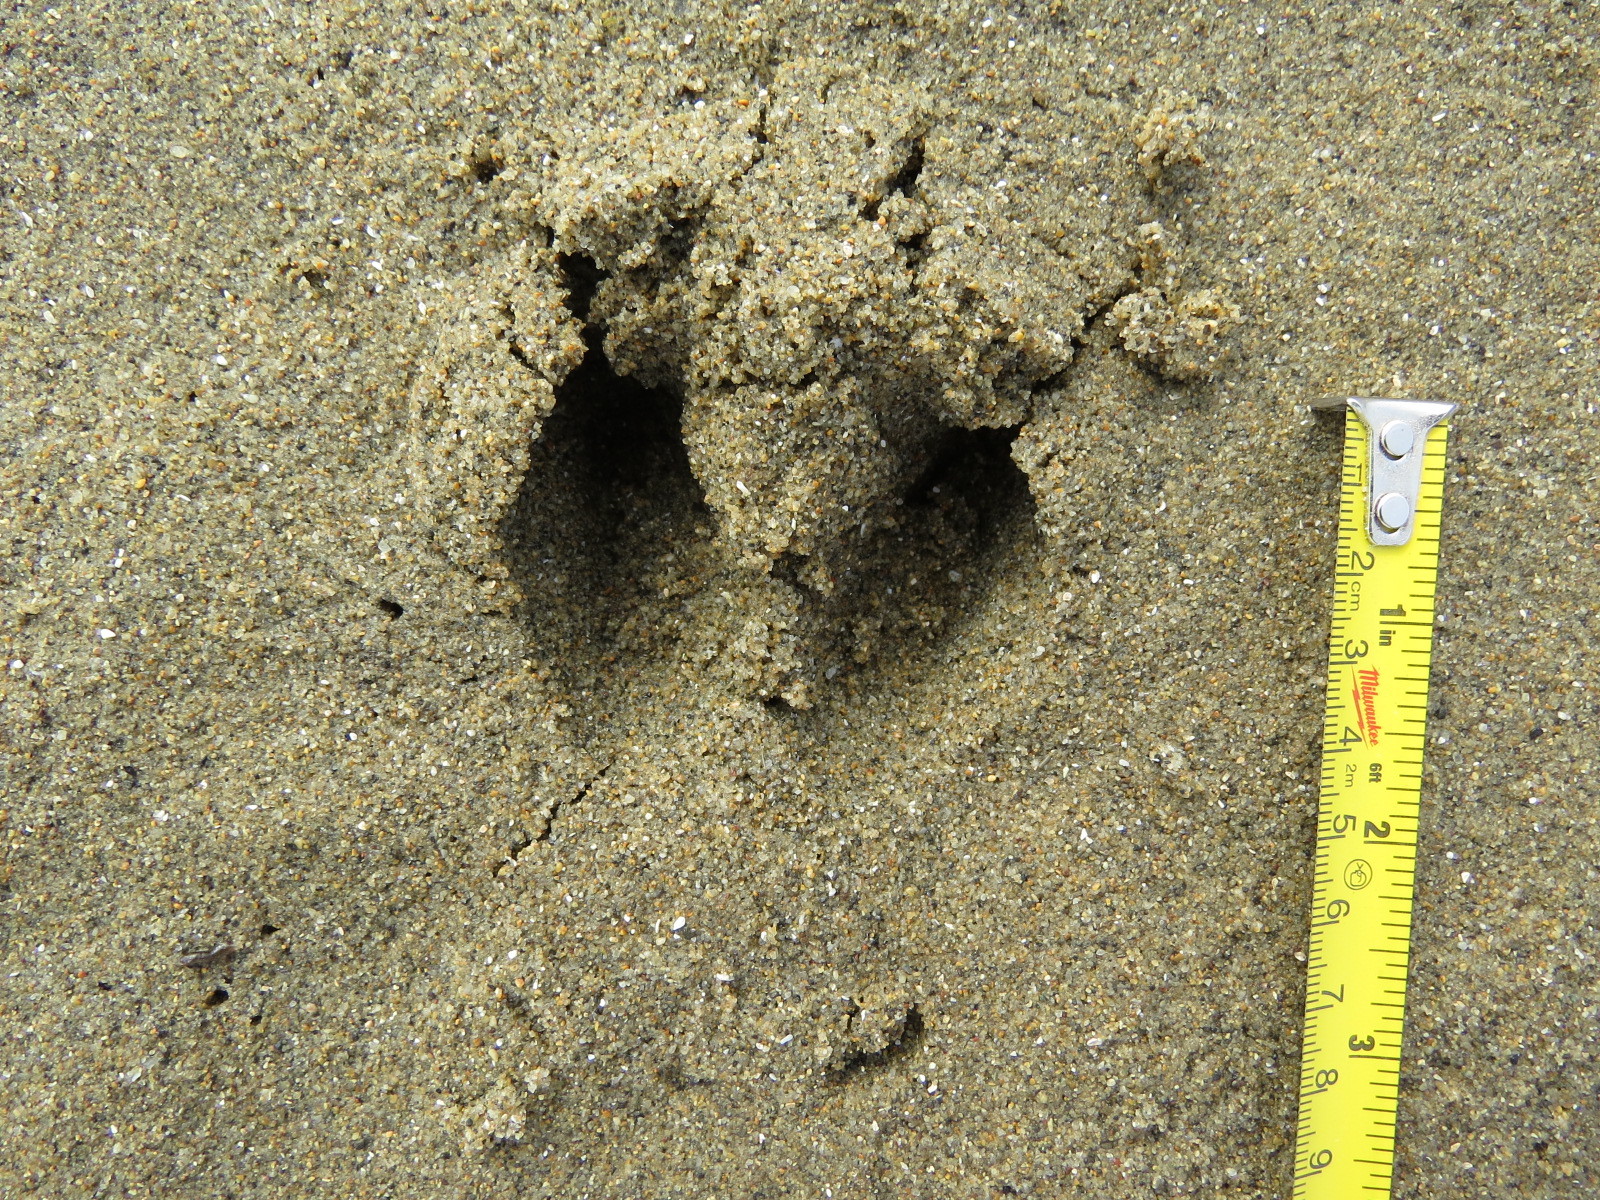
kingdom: Animalia
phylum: Chordata
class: Mammalia
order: Artiodactyla
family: Cervidae
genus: Odocoileus
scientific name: Odocoileus hemionus
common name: Mule deer
